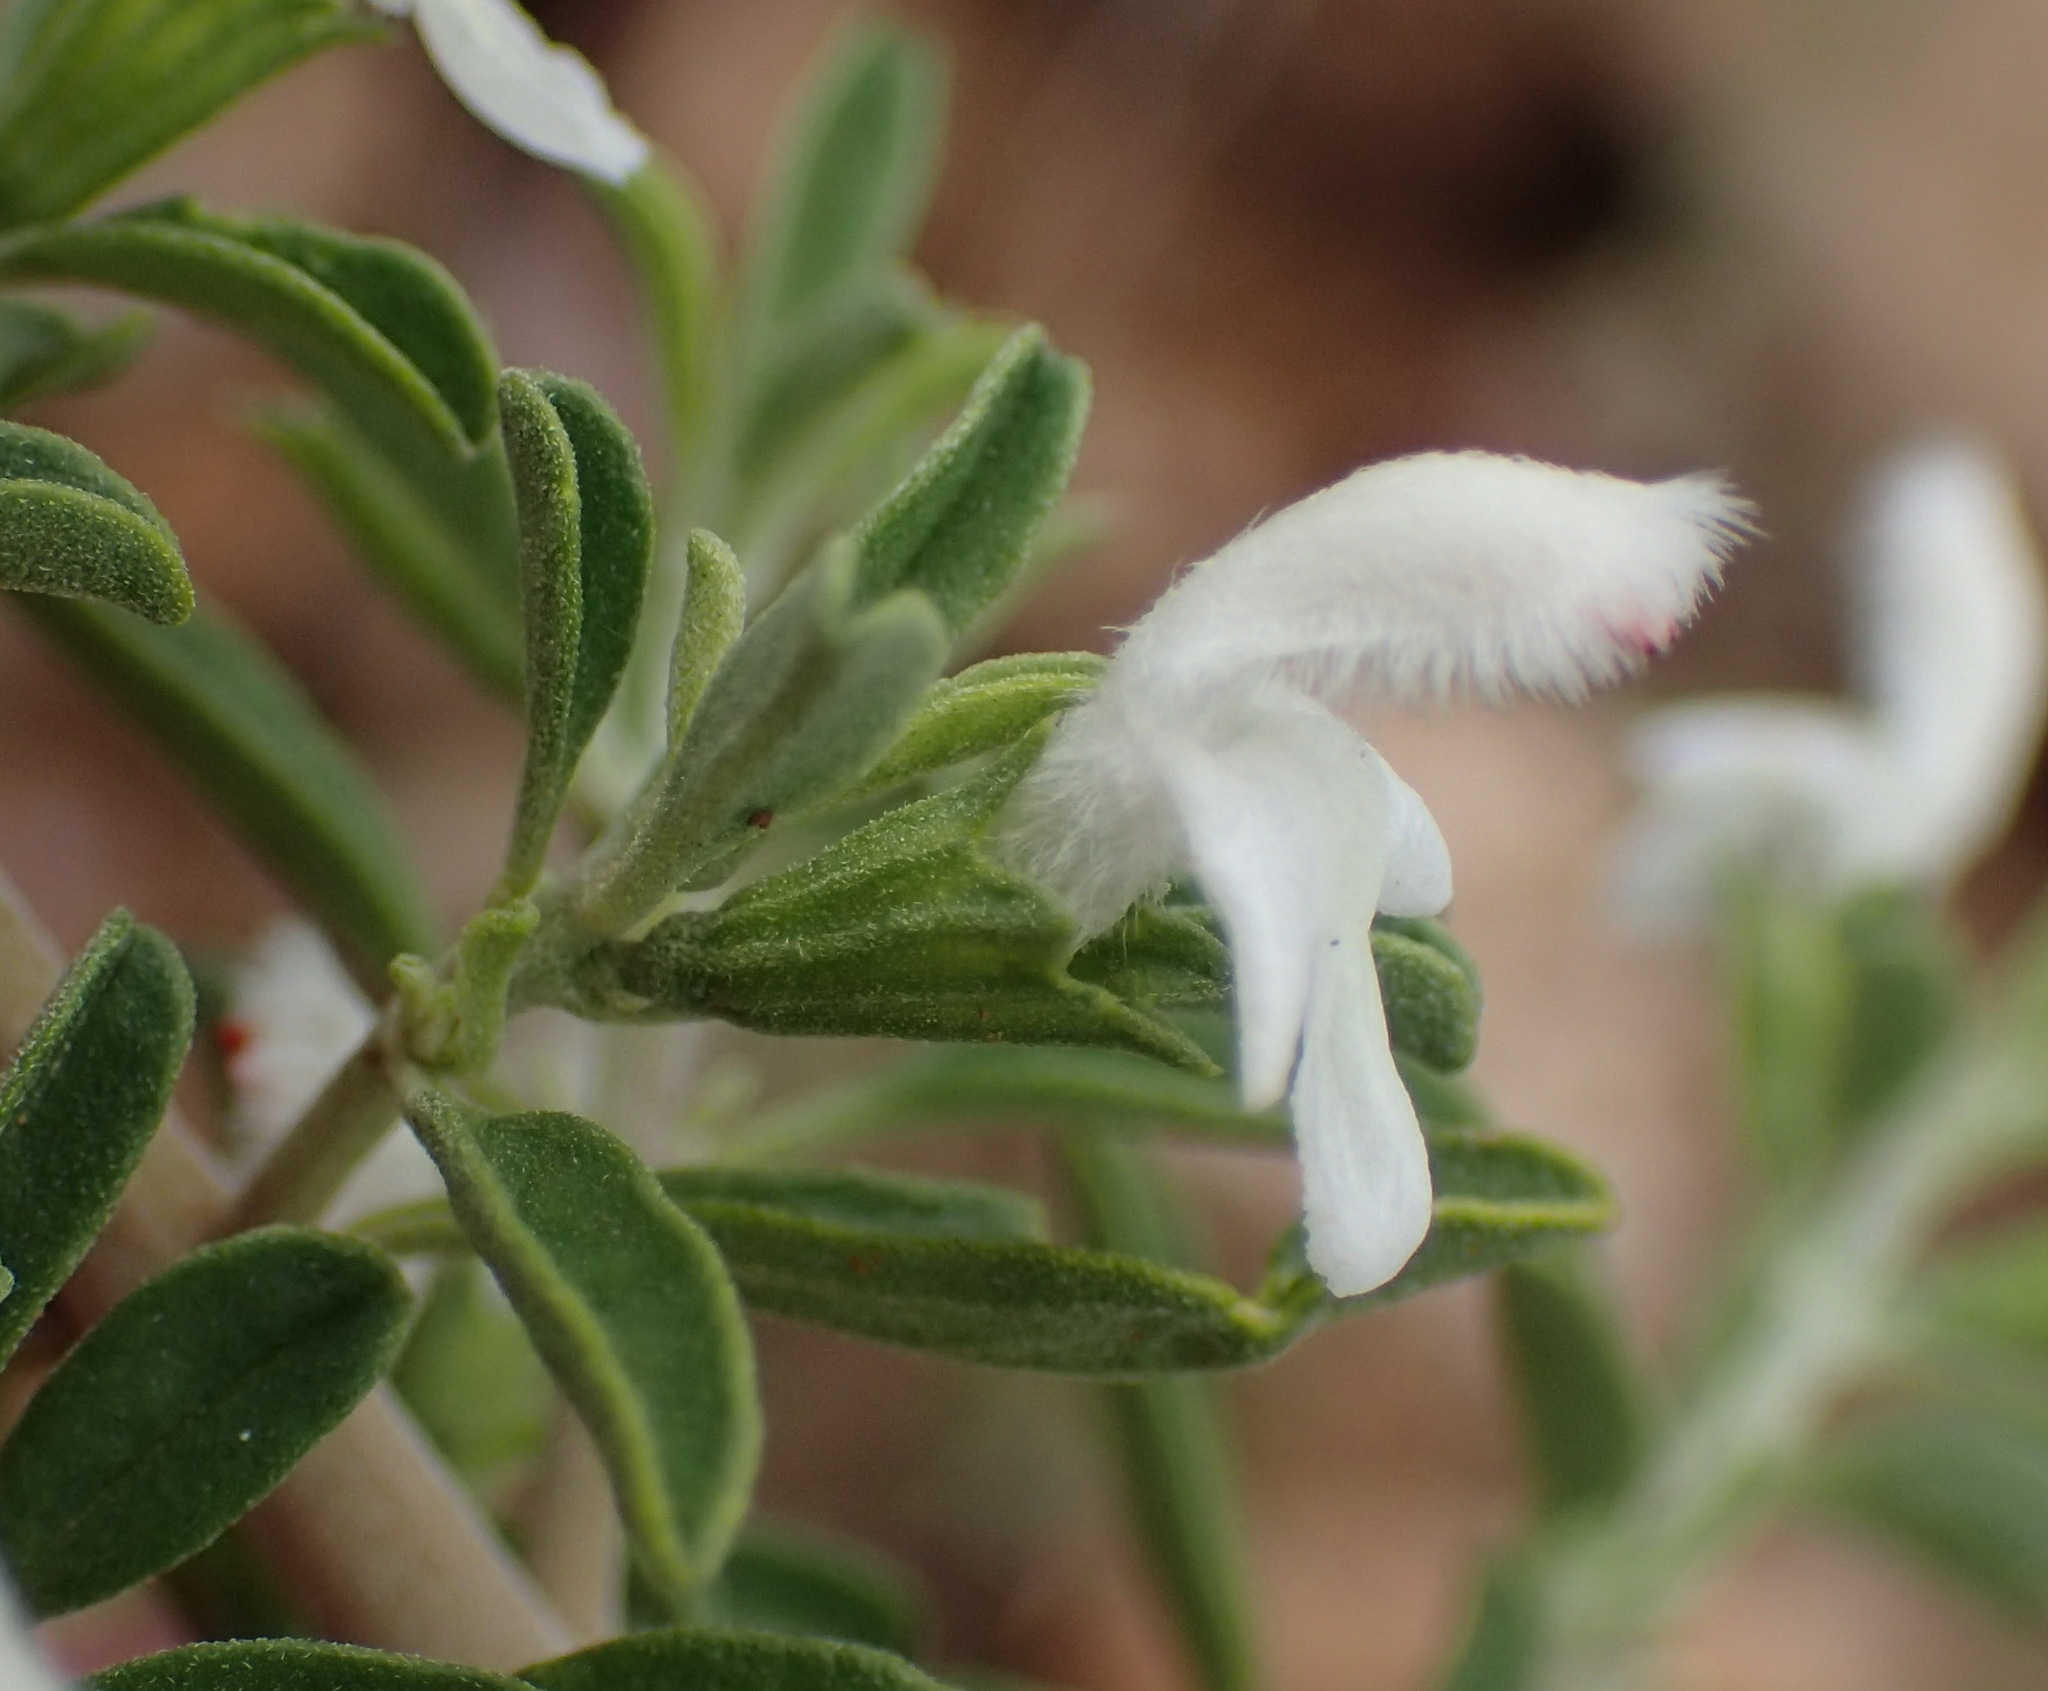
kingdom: Plantae
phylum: Tracheophyta
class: Magnoliopsida
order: Lamiales
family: Lamiaceae
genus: Leucas
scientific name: Leucas capensis
